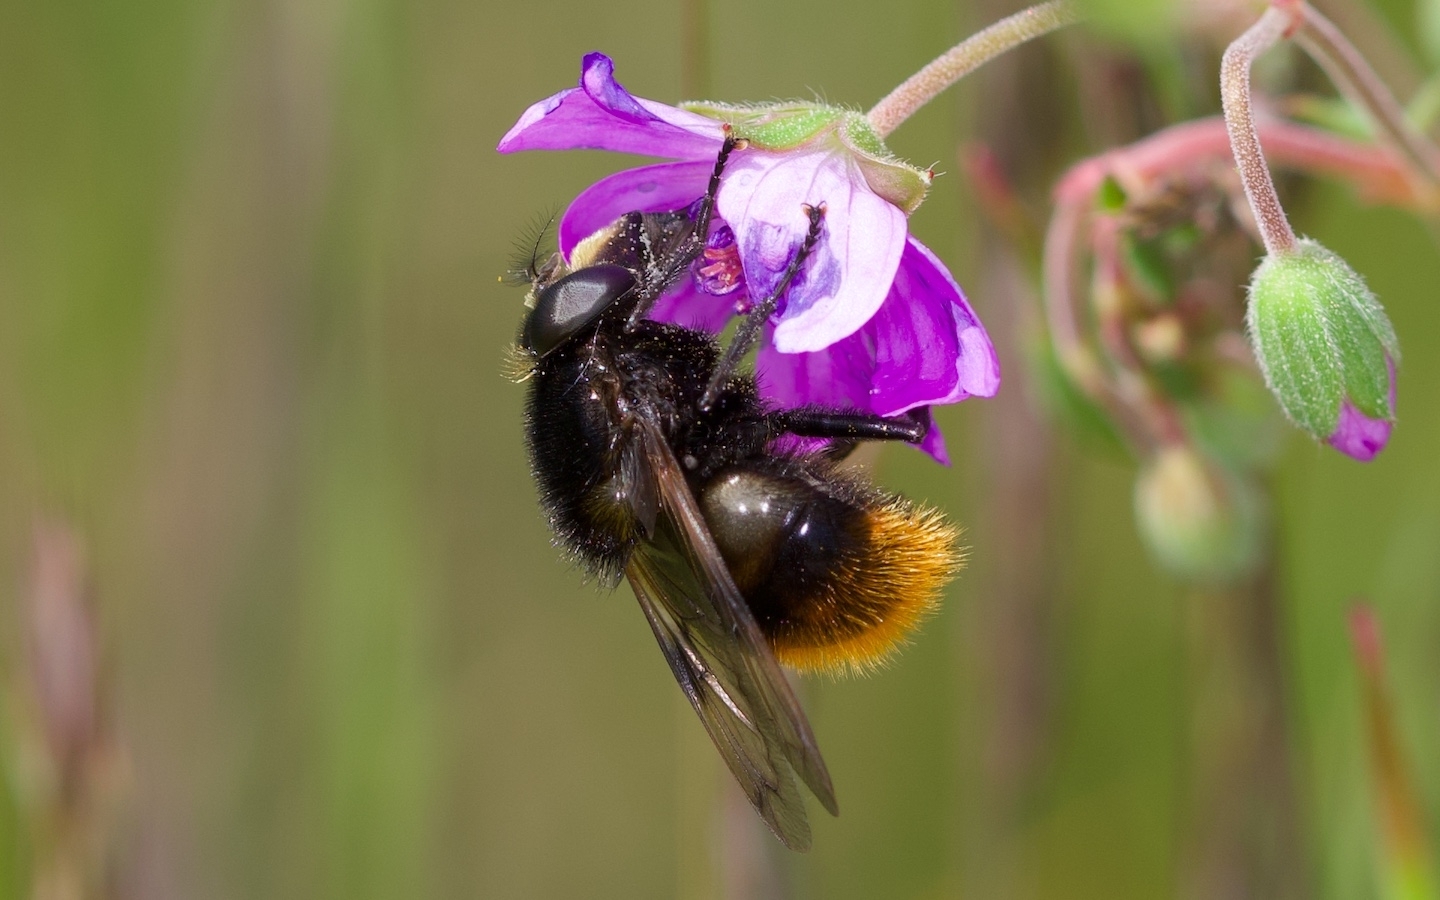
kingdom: Animalia
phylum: Arthropoda
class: Insecta
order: Diptera
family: Syrphidae
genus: Volucella
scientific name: Volucella bombylans
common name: Bumble bee hover fly
